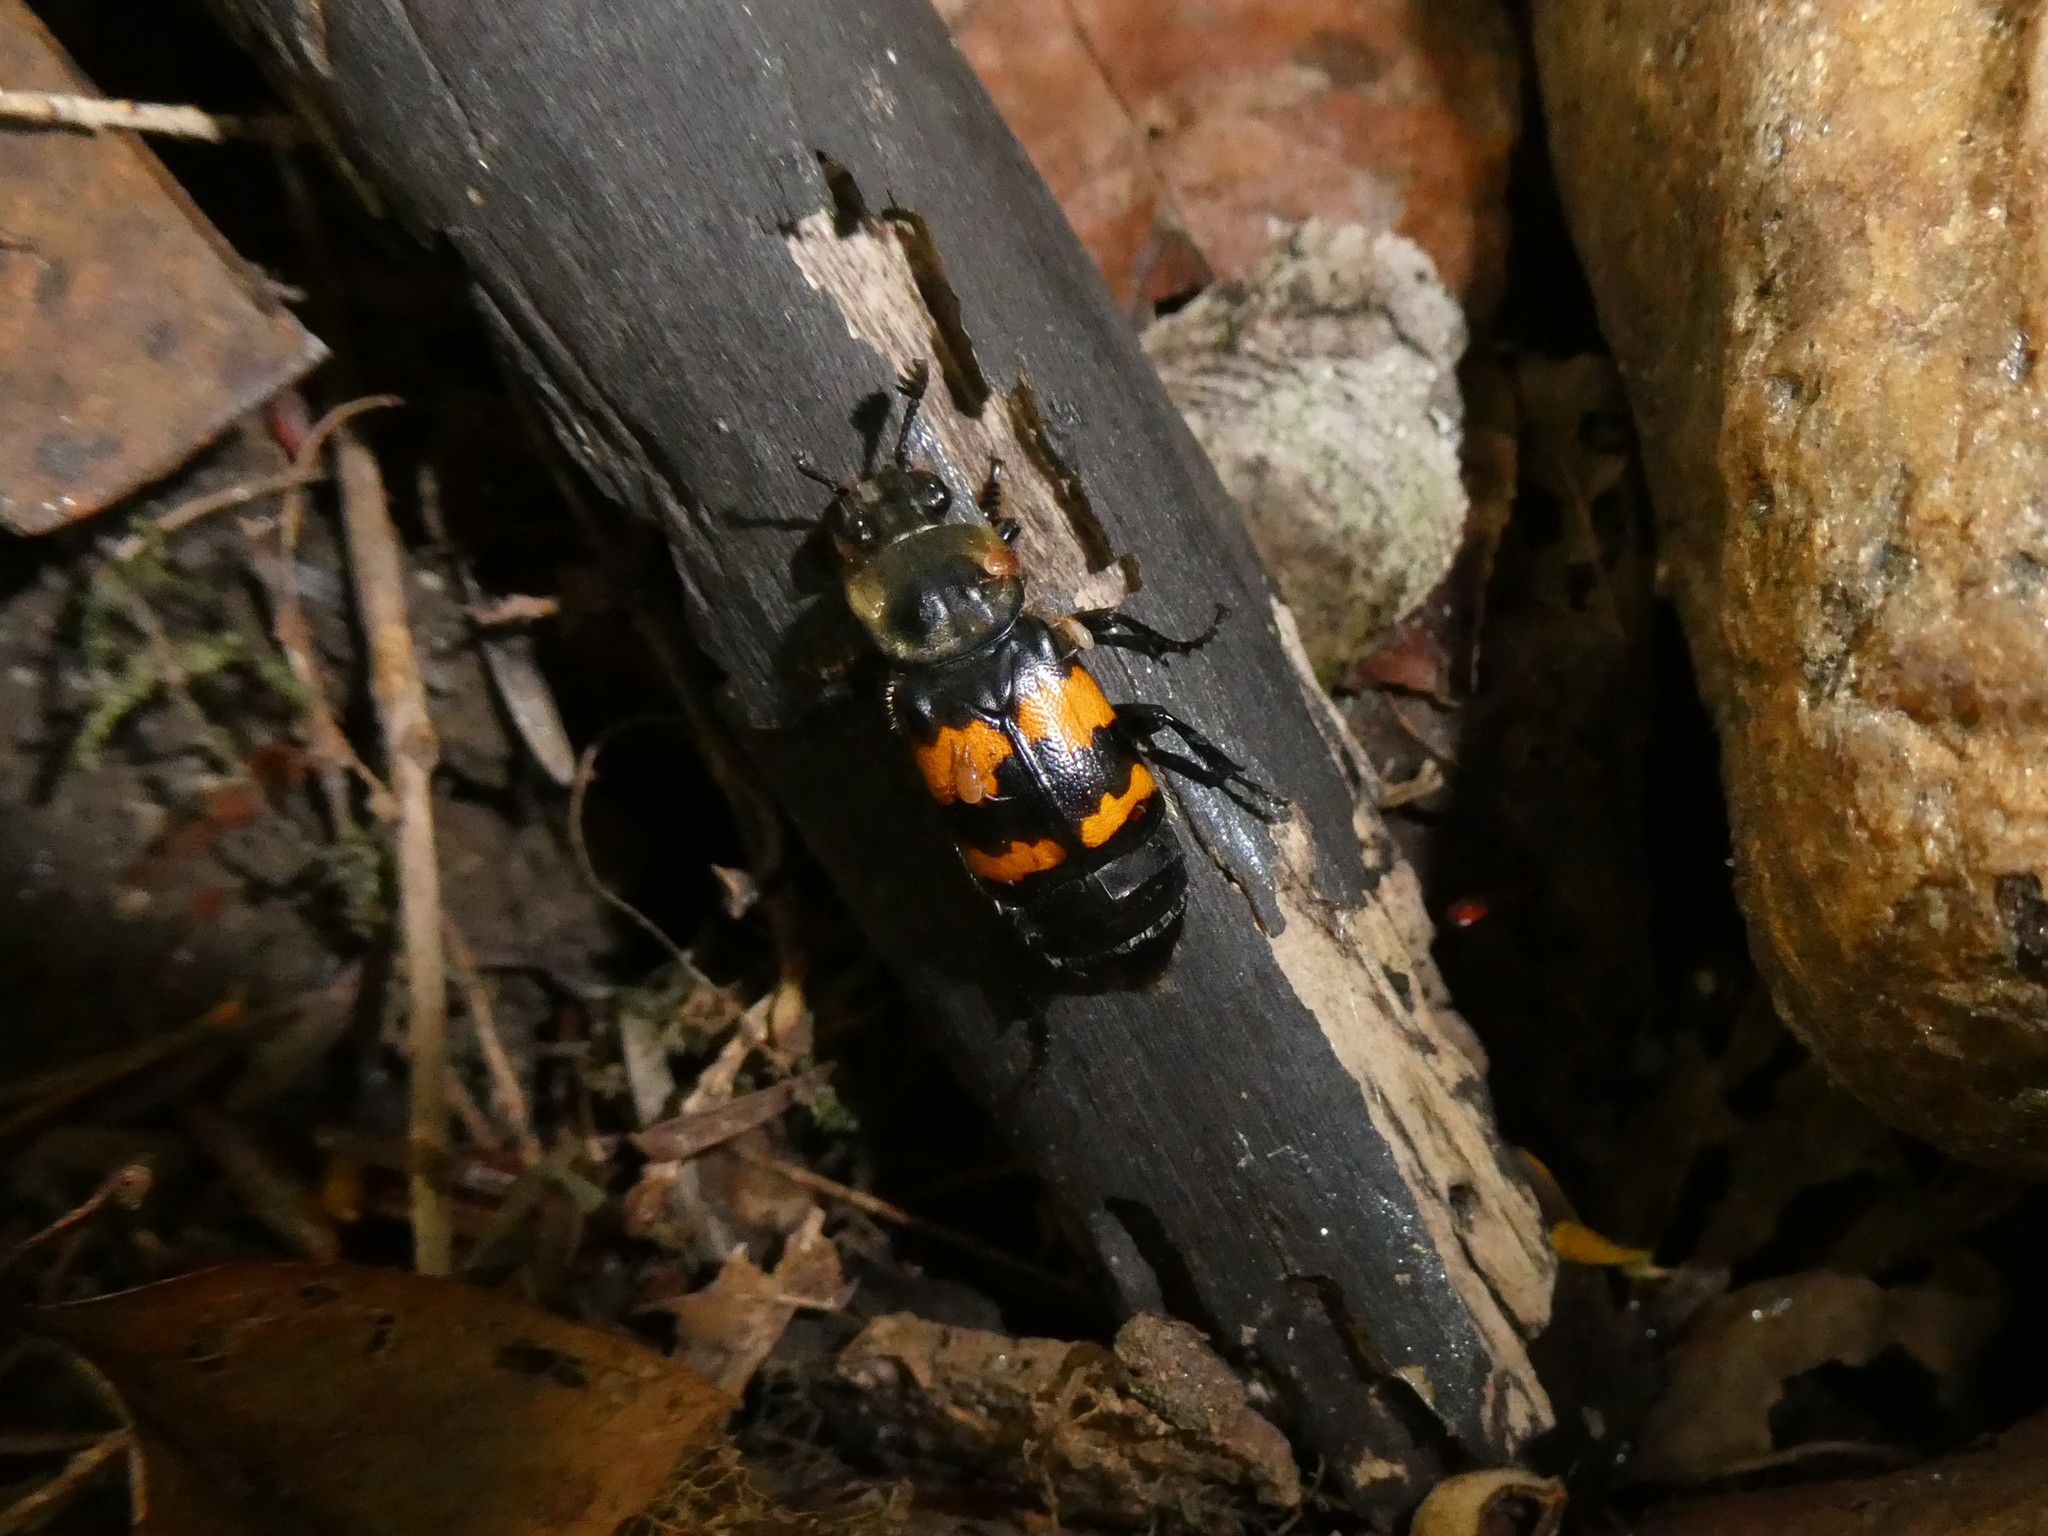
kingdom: Animalia
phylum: Arthropoda
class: Arachnida
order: Mesostigmata
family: Parasitidae
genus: Poecilochirus
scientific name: Poecilochirus
